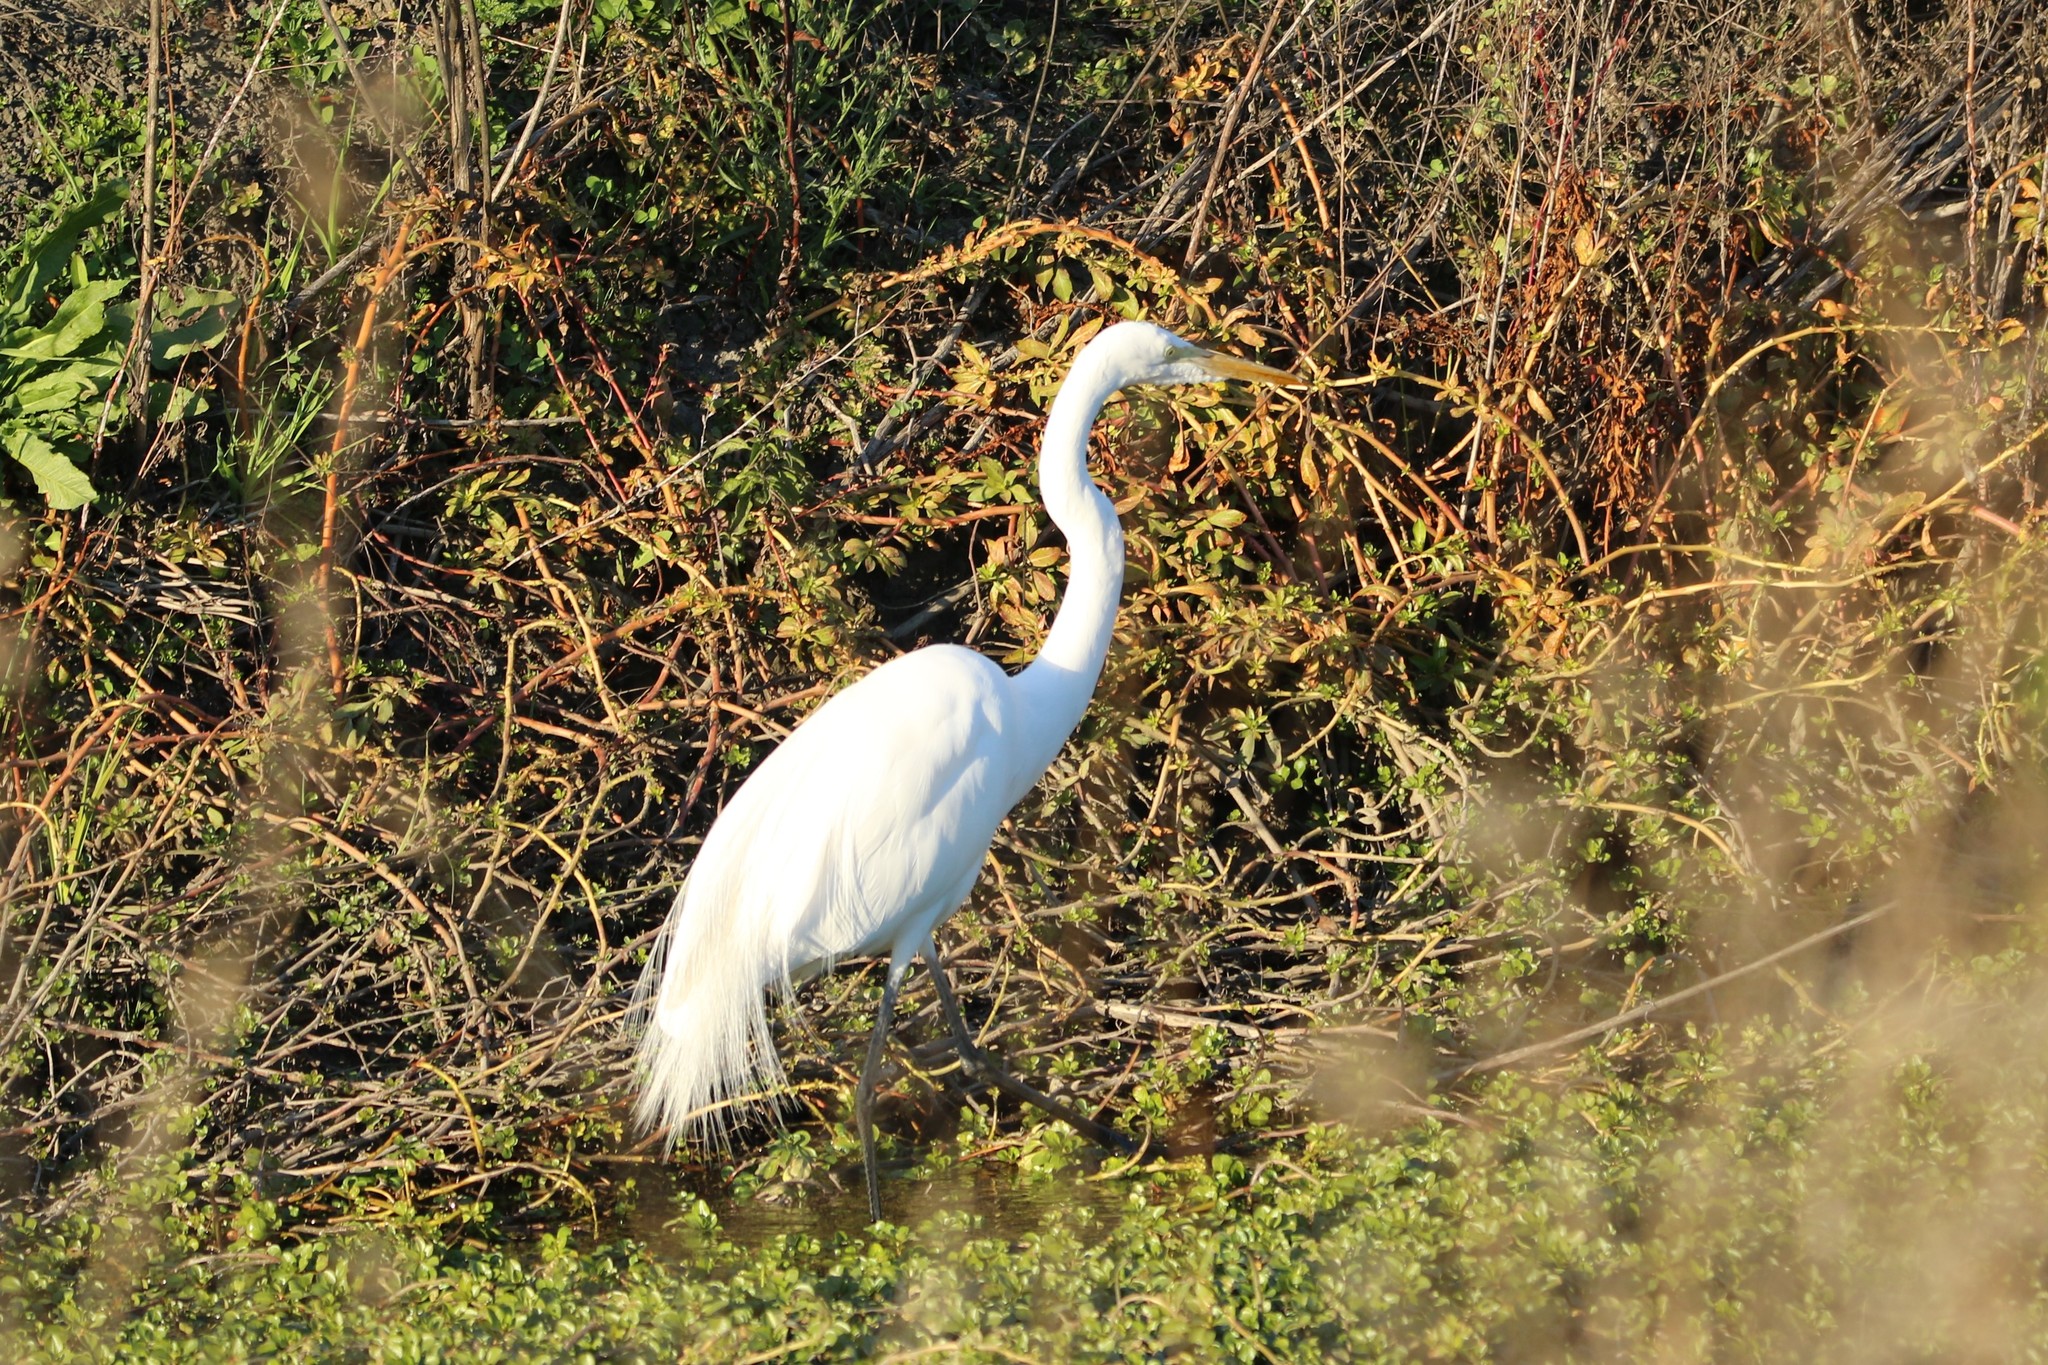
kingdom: Animalia
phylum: Chordata
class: Aves
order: Pelecaniformes
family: Ardeidae
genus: Ardea
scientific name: Ardea alba
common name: Great egret
